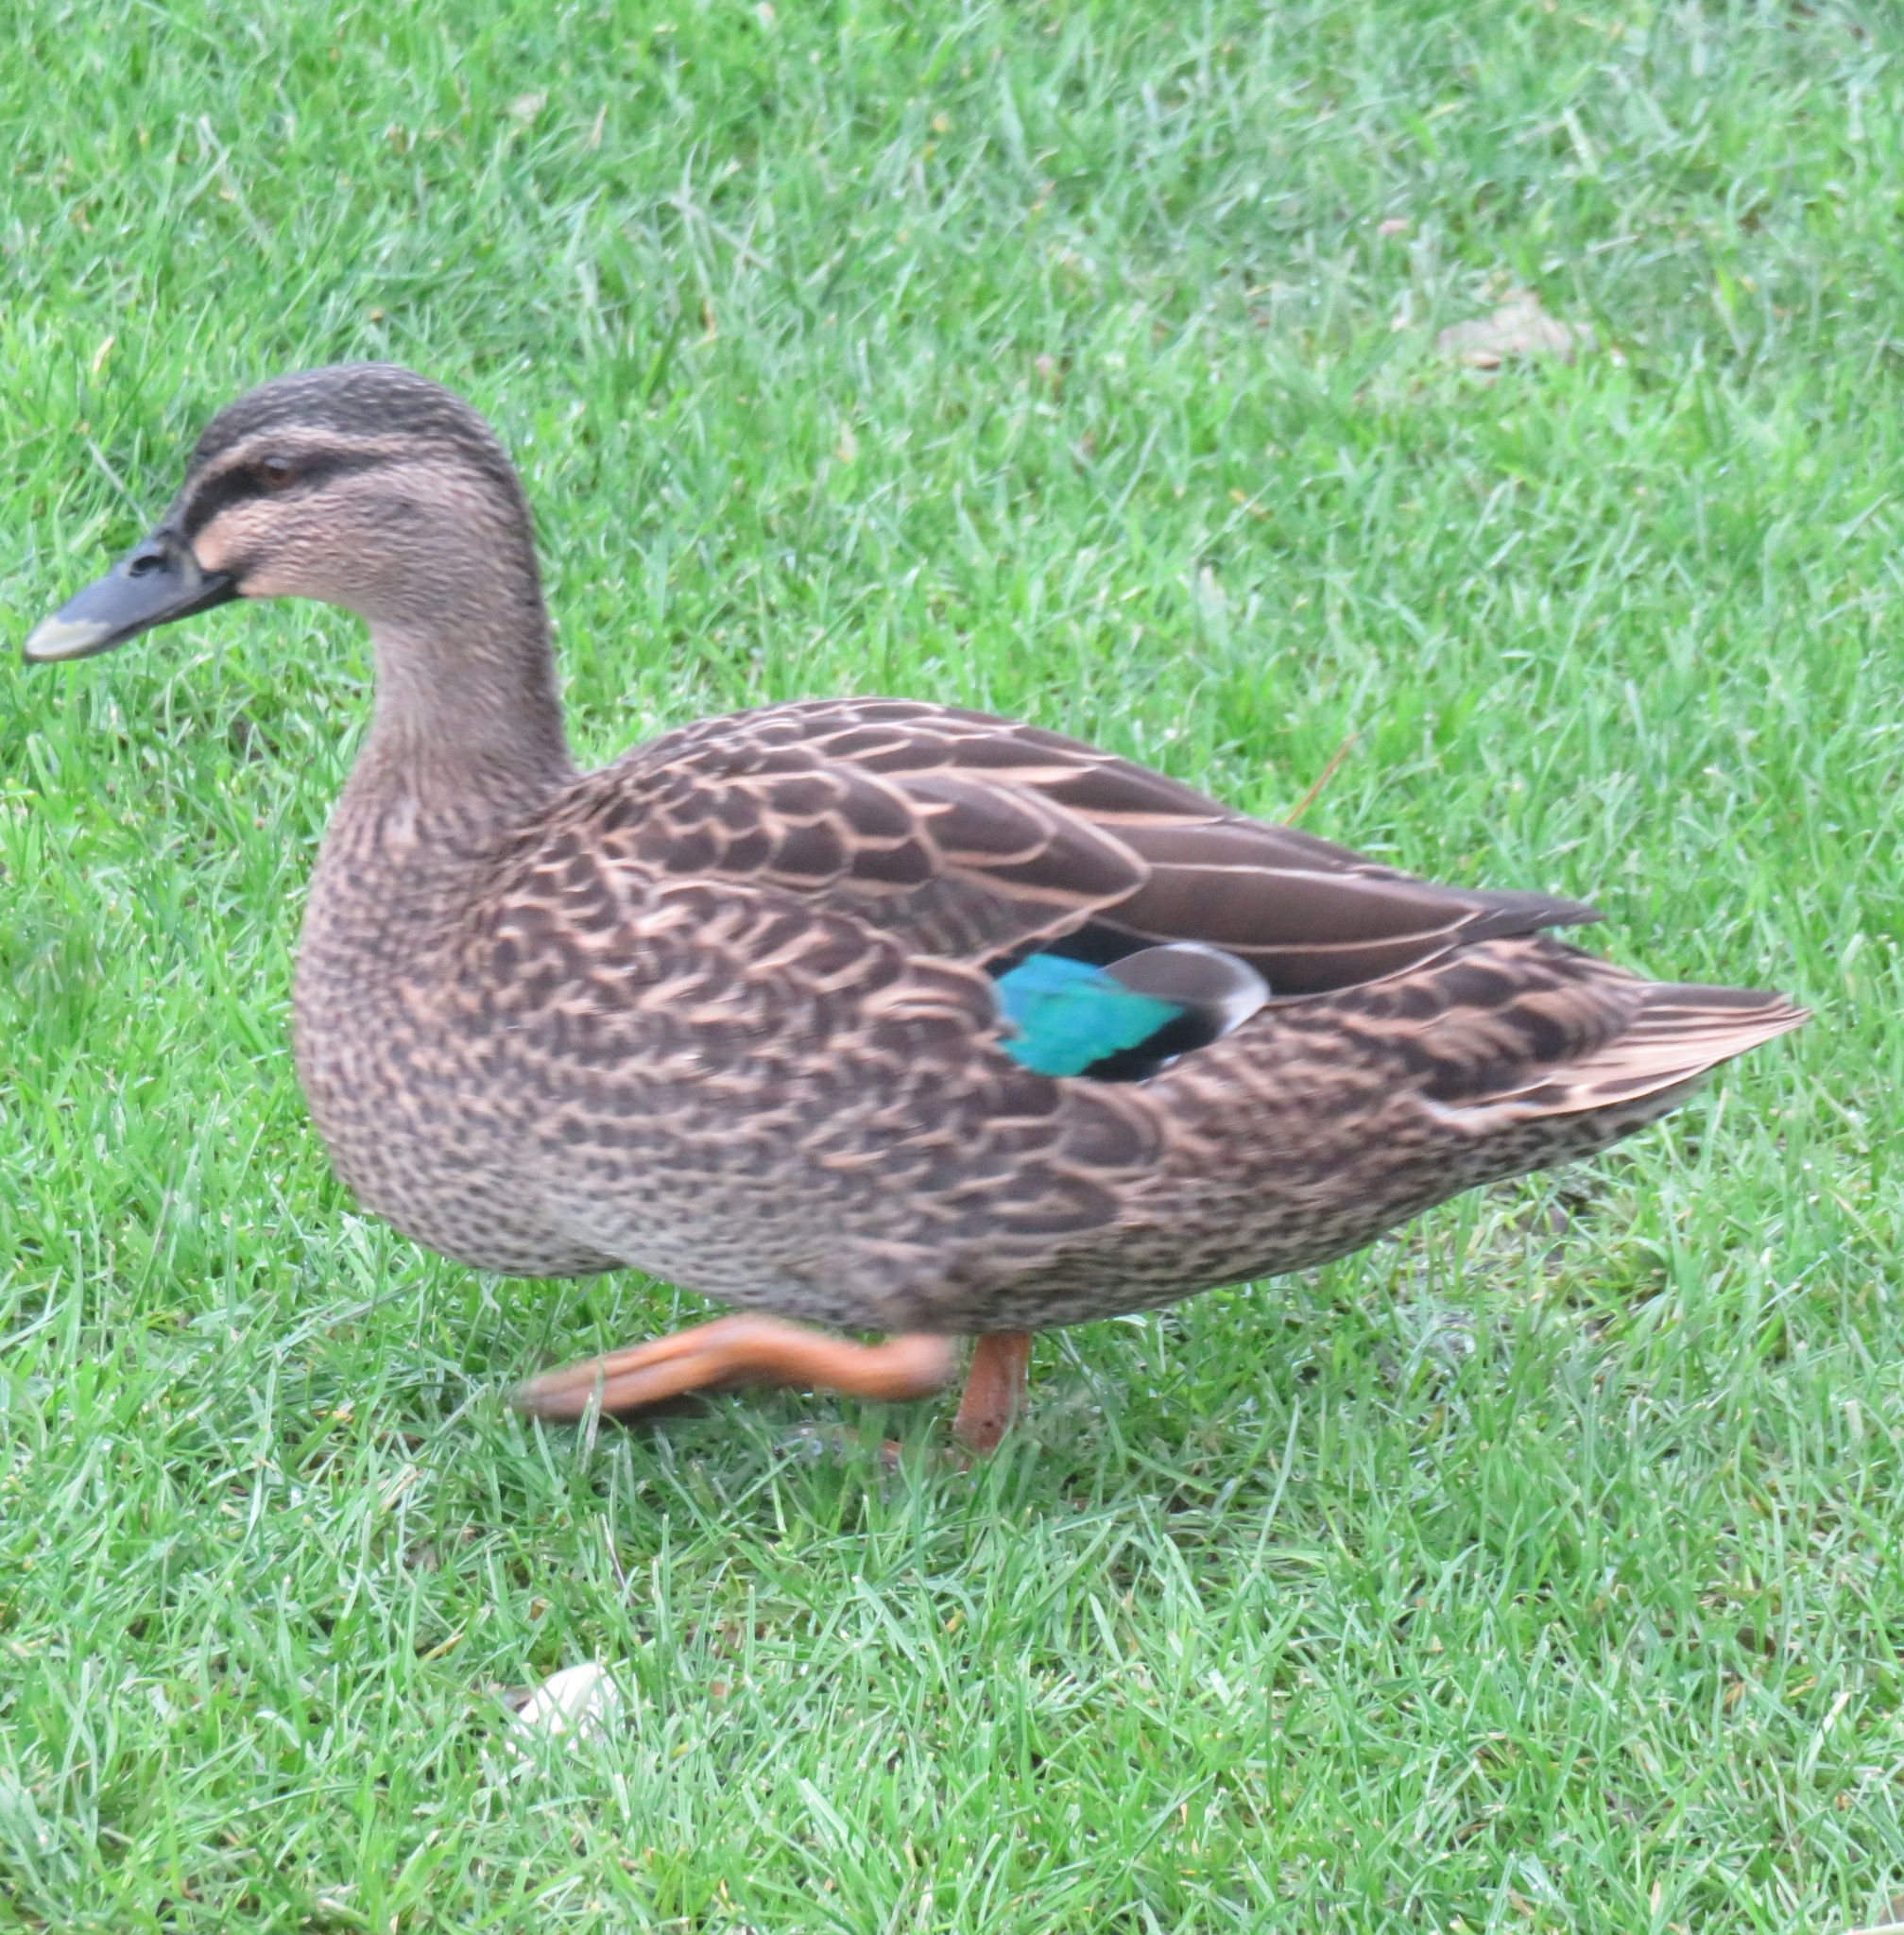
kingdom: Animalia
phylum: Chordata
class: Aves
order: Anseriformes
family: Anatidae
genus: Anas
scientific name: Anas
